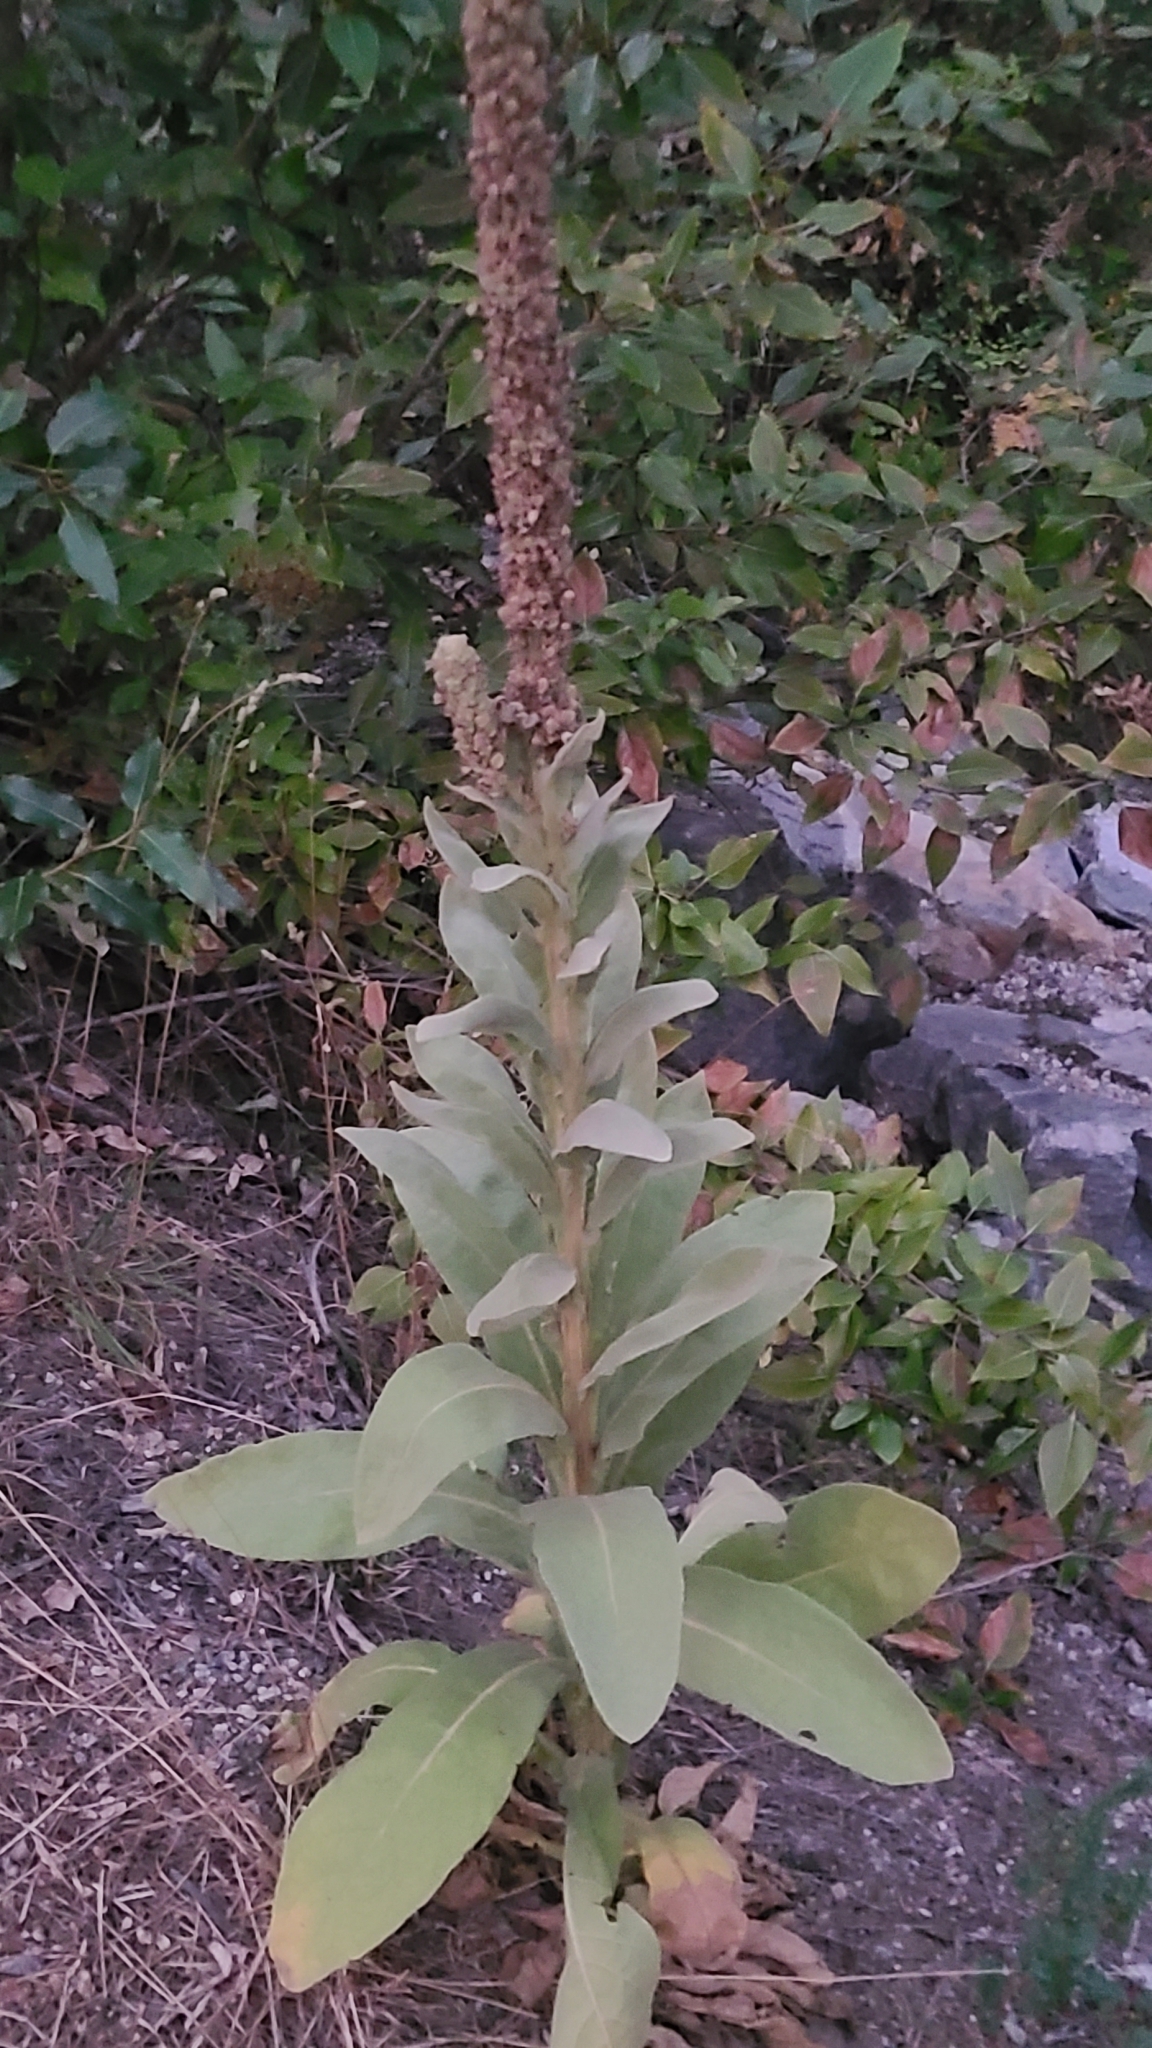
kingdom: Plantae
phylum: Tracheophyta
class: Magnoliopsida
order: Lamiales
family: Scrophulariaceae
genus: Verbascum
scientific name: Verbascum thapsus
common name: Common mullein
